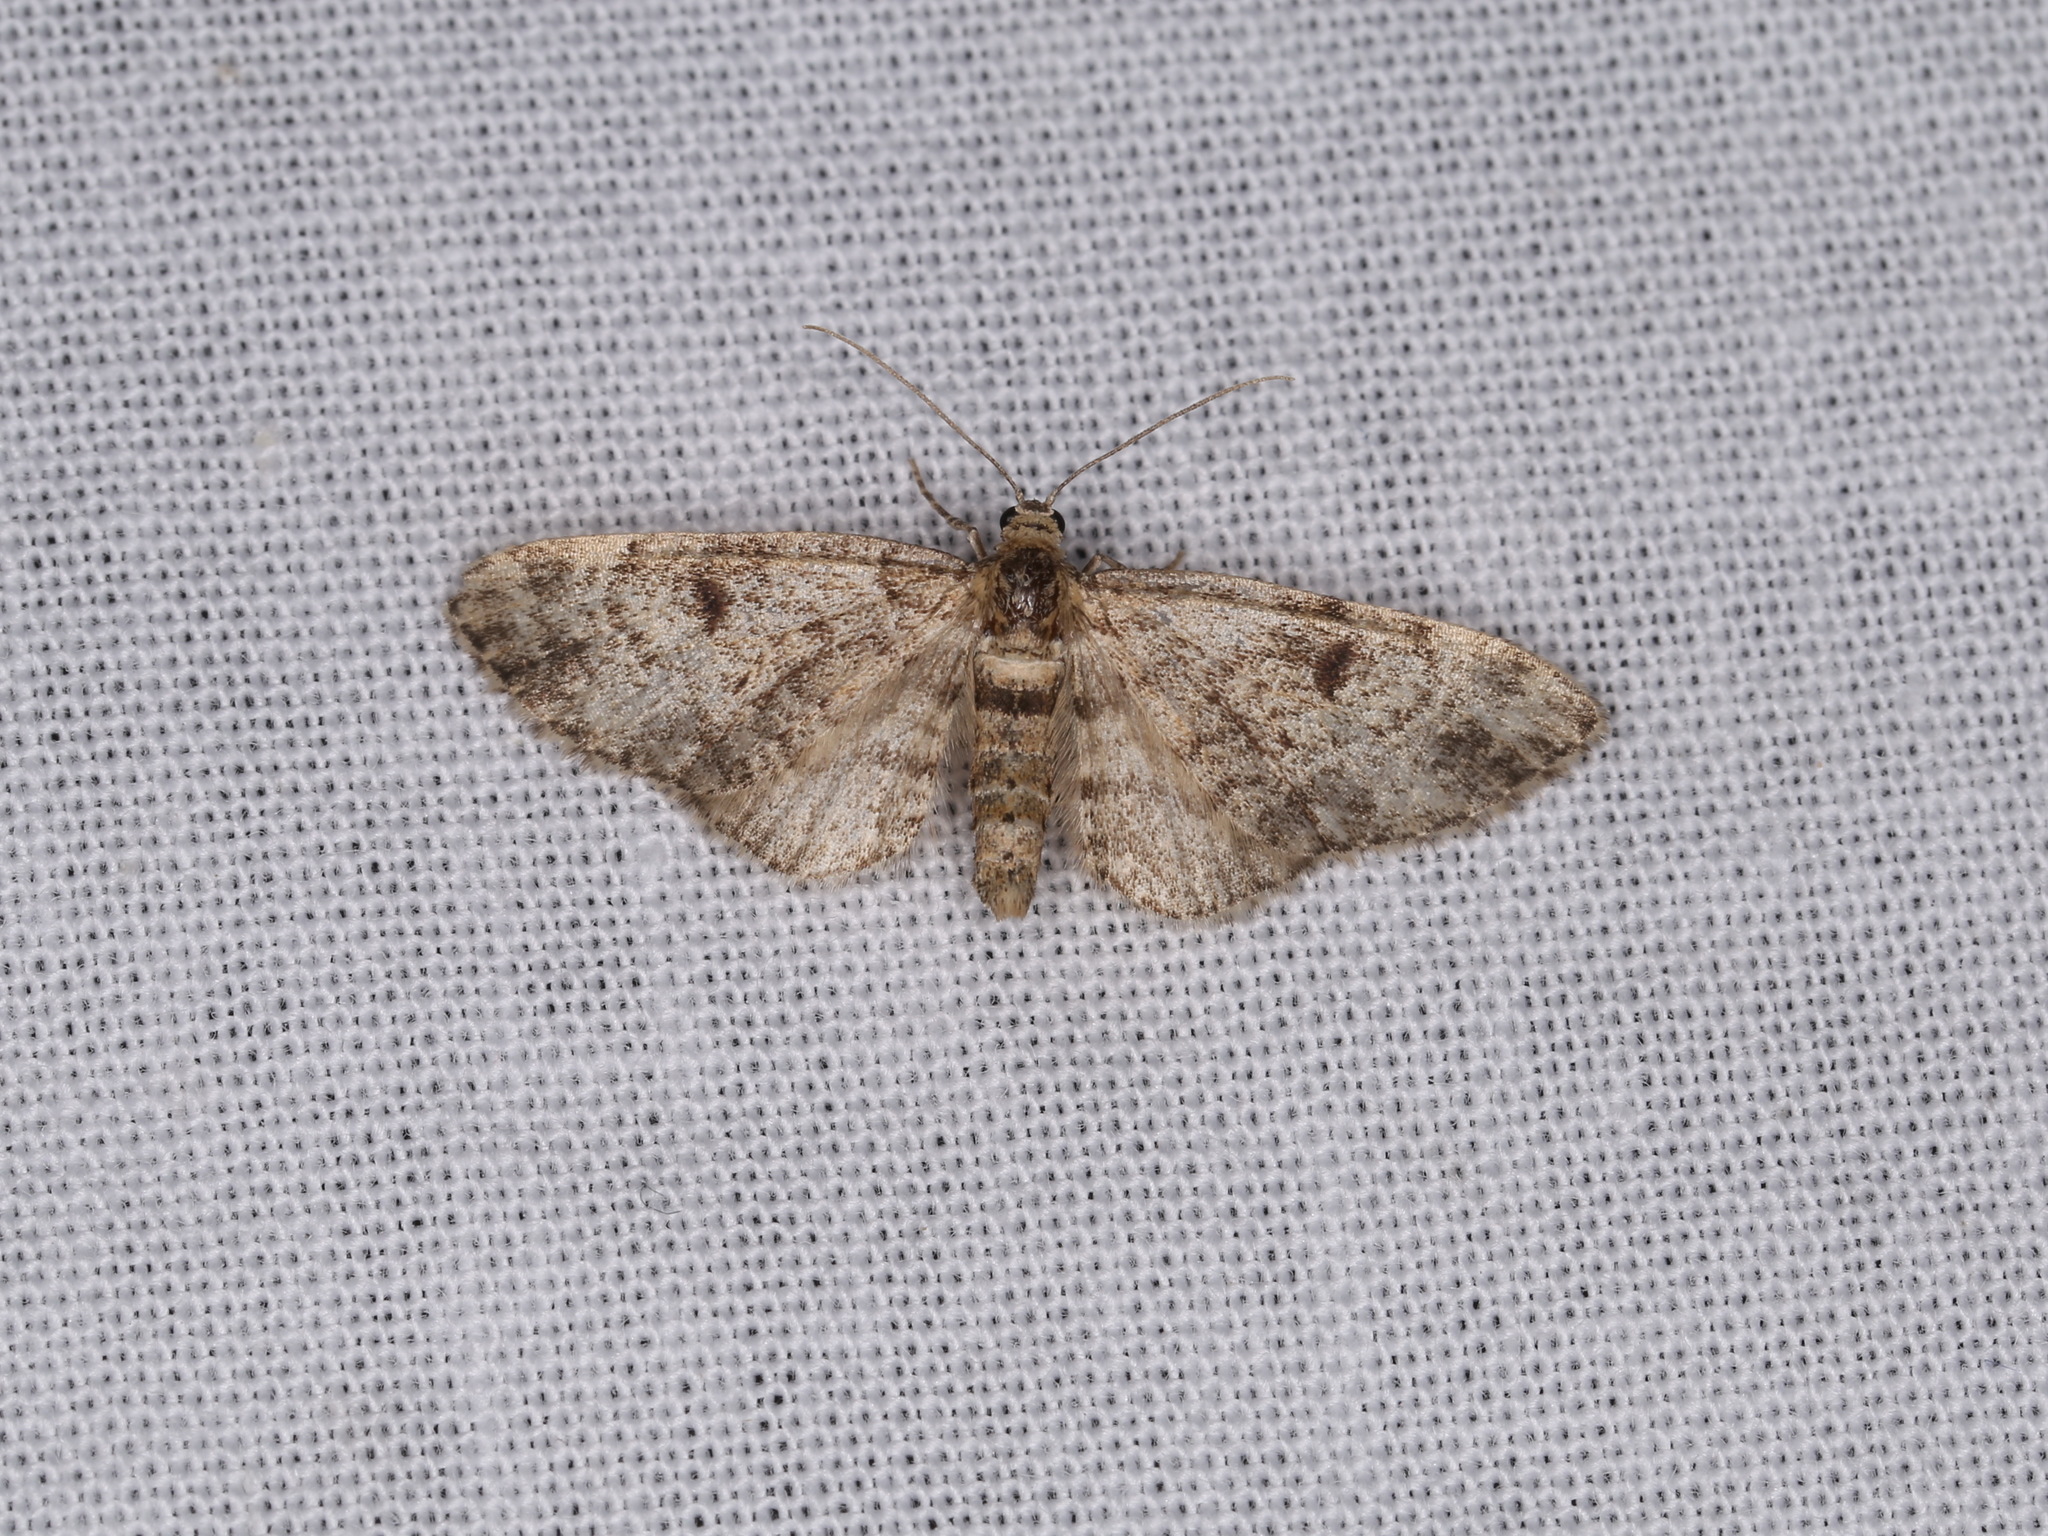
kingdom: Animalia
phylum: Arthropoda
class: Insecta
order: Lepidoptera
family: Geometridae
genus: Eupithecia
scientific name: Eupithecia tantillaria
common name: Dwarf pug
